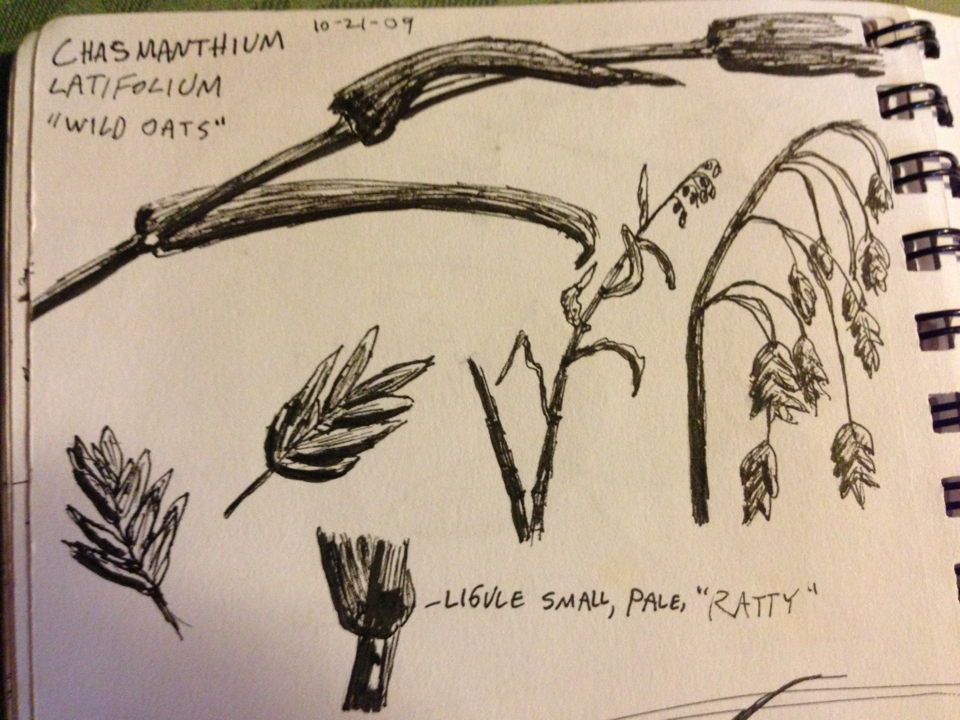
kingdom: Plantae
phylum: Tracheophyta
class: Liliopsida
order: Poales
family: Poaceae
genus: Chasmanthium
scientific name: Chasmanthium latifolium
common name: Broad-leaved chasmanthium
